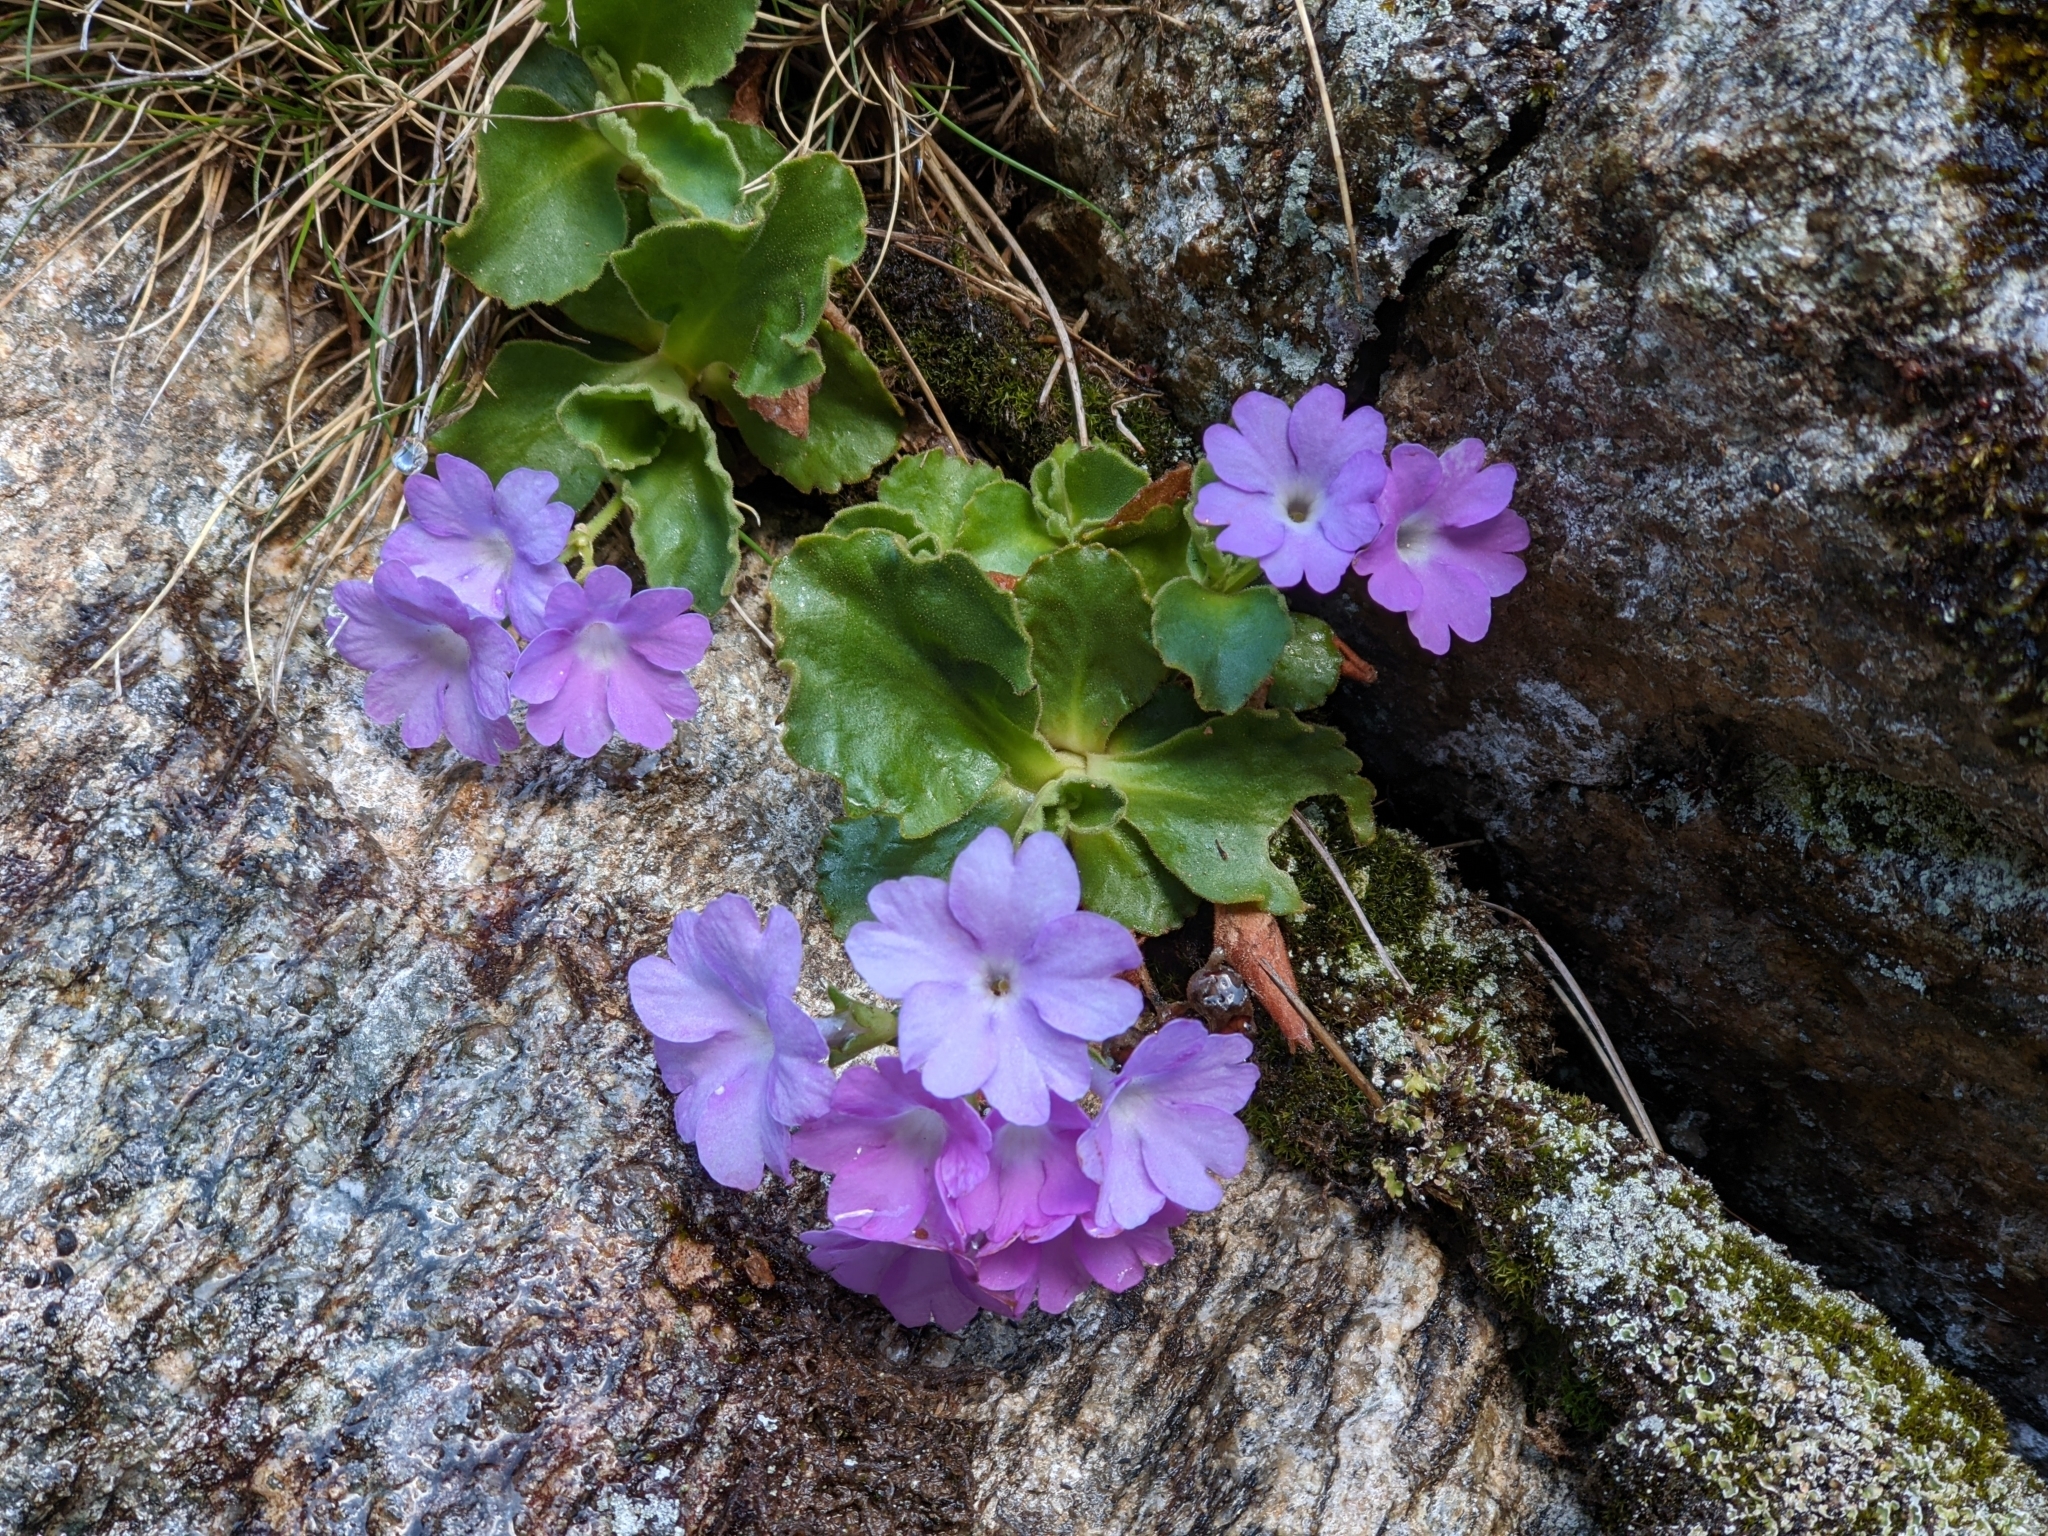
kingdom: Plantae
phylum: Tracheophyta
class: Magnoliopsida
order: Ericales
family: Primulaceae
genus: Primula
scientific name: Primula hirsuta
